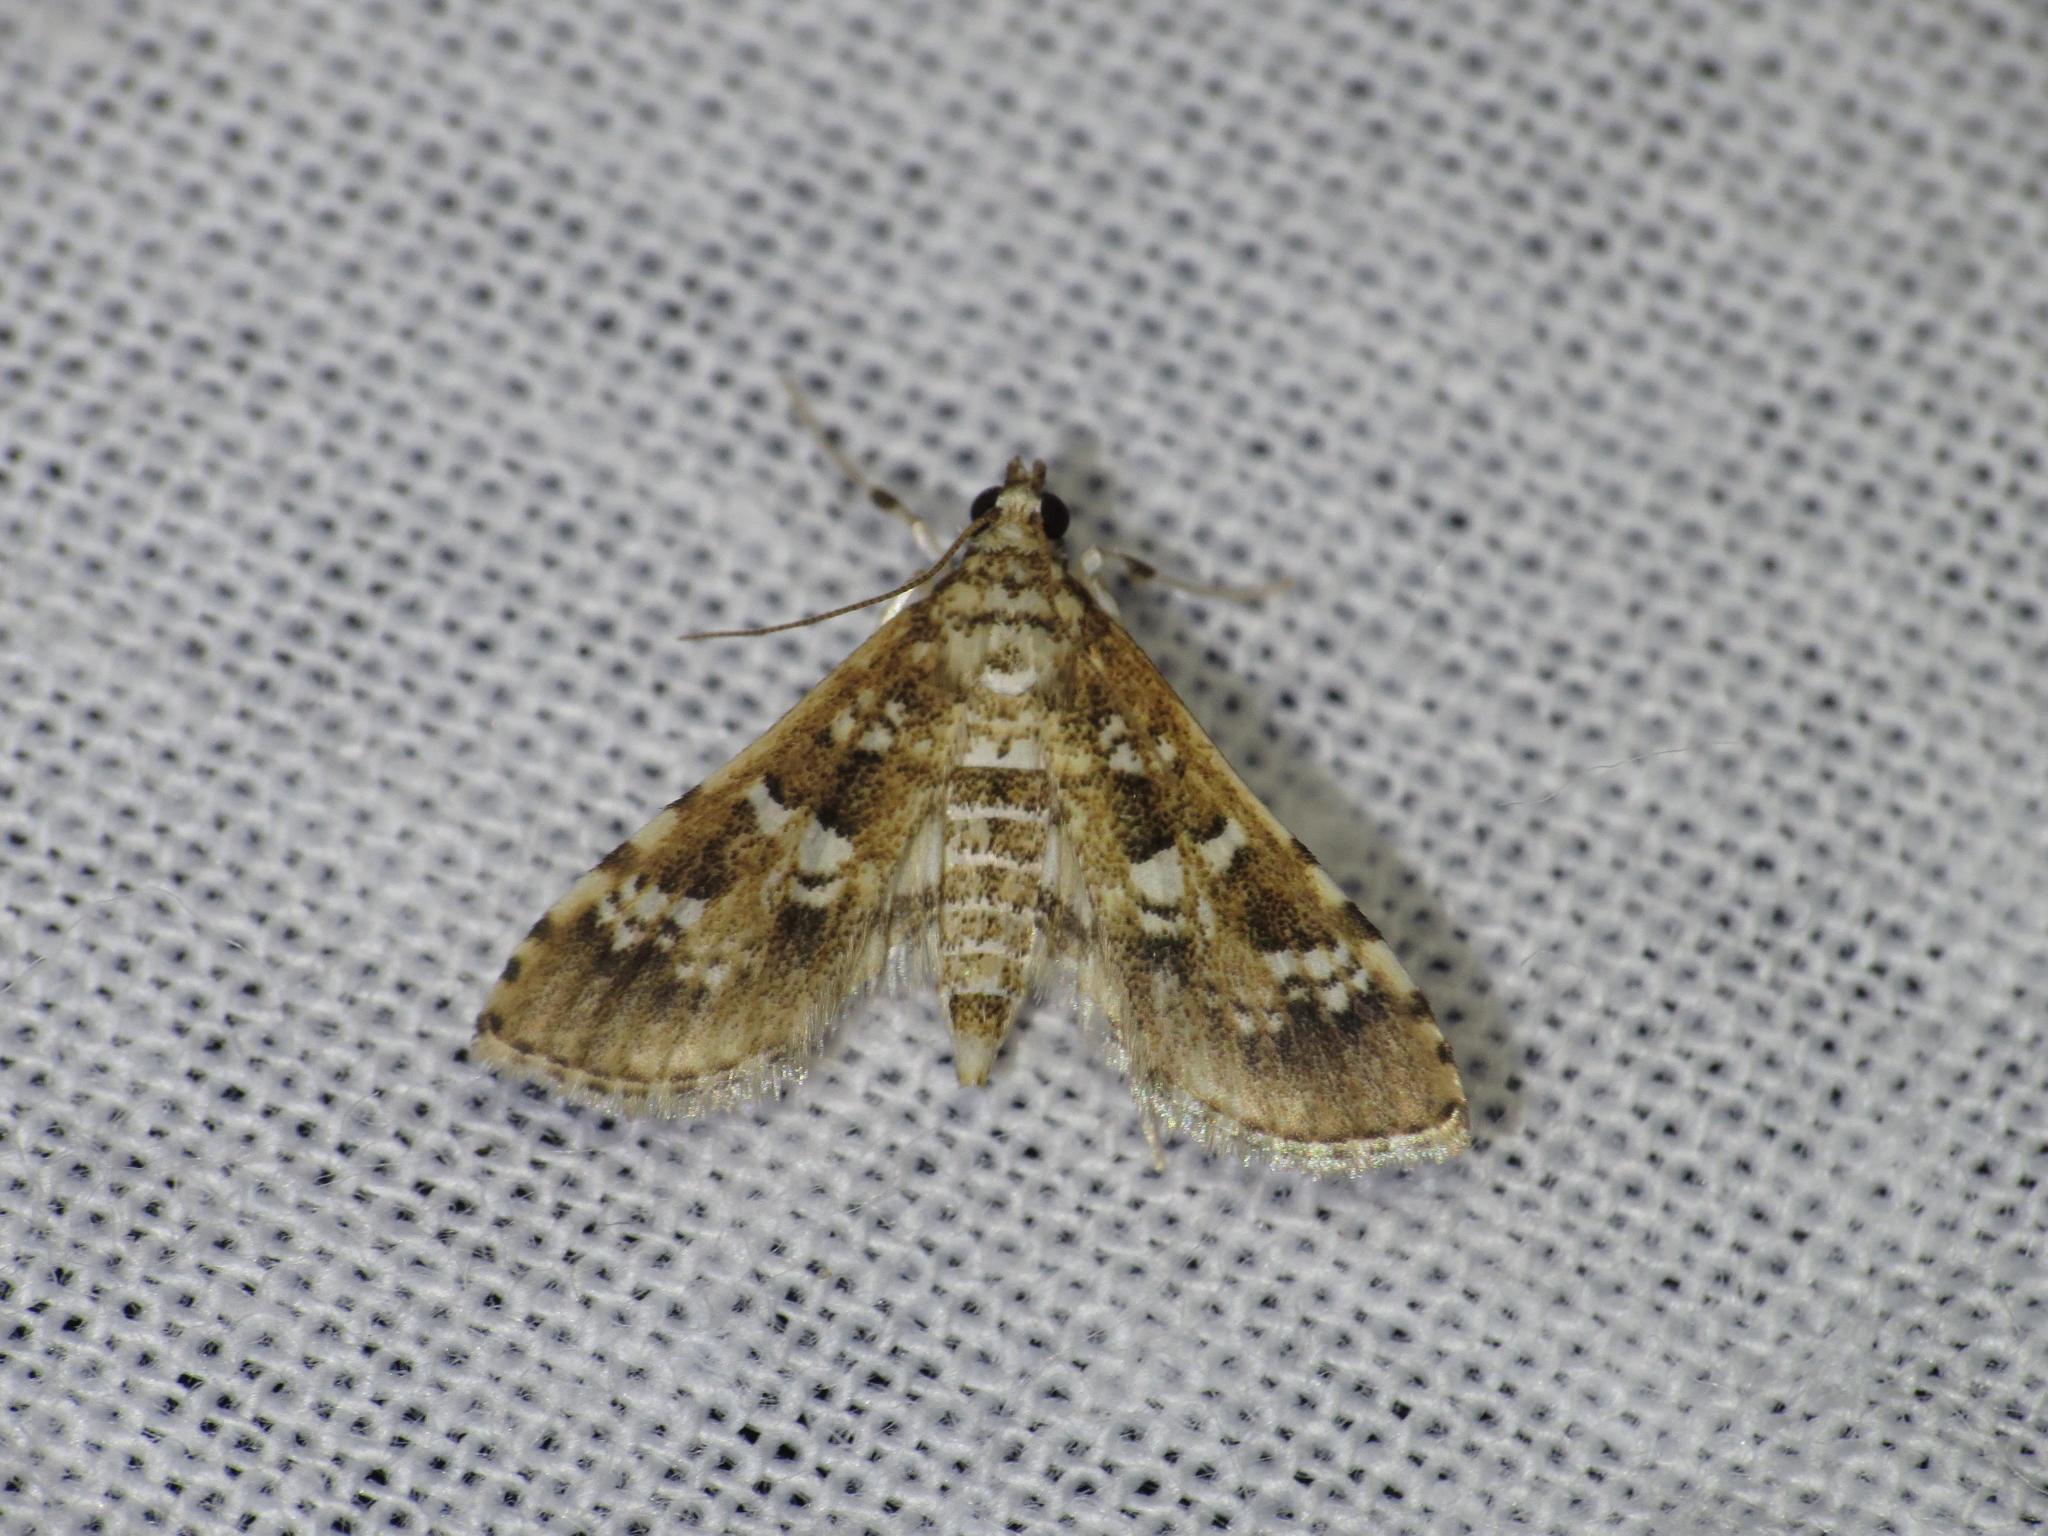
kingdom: Animalia
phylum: Arthropoda
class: Insecta
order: Lepidoptera
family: Crambidae
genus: Samea
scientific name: Samea multiplicalis
